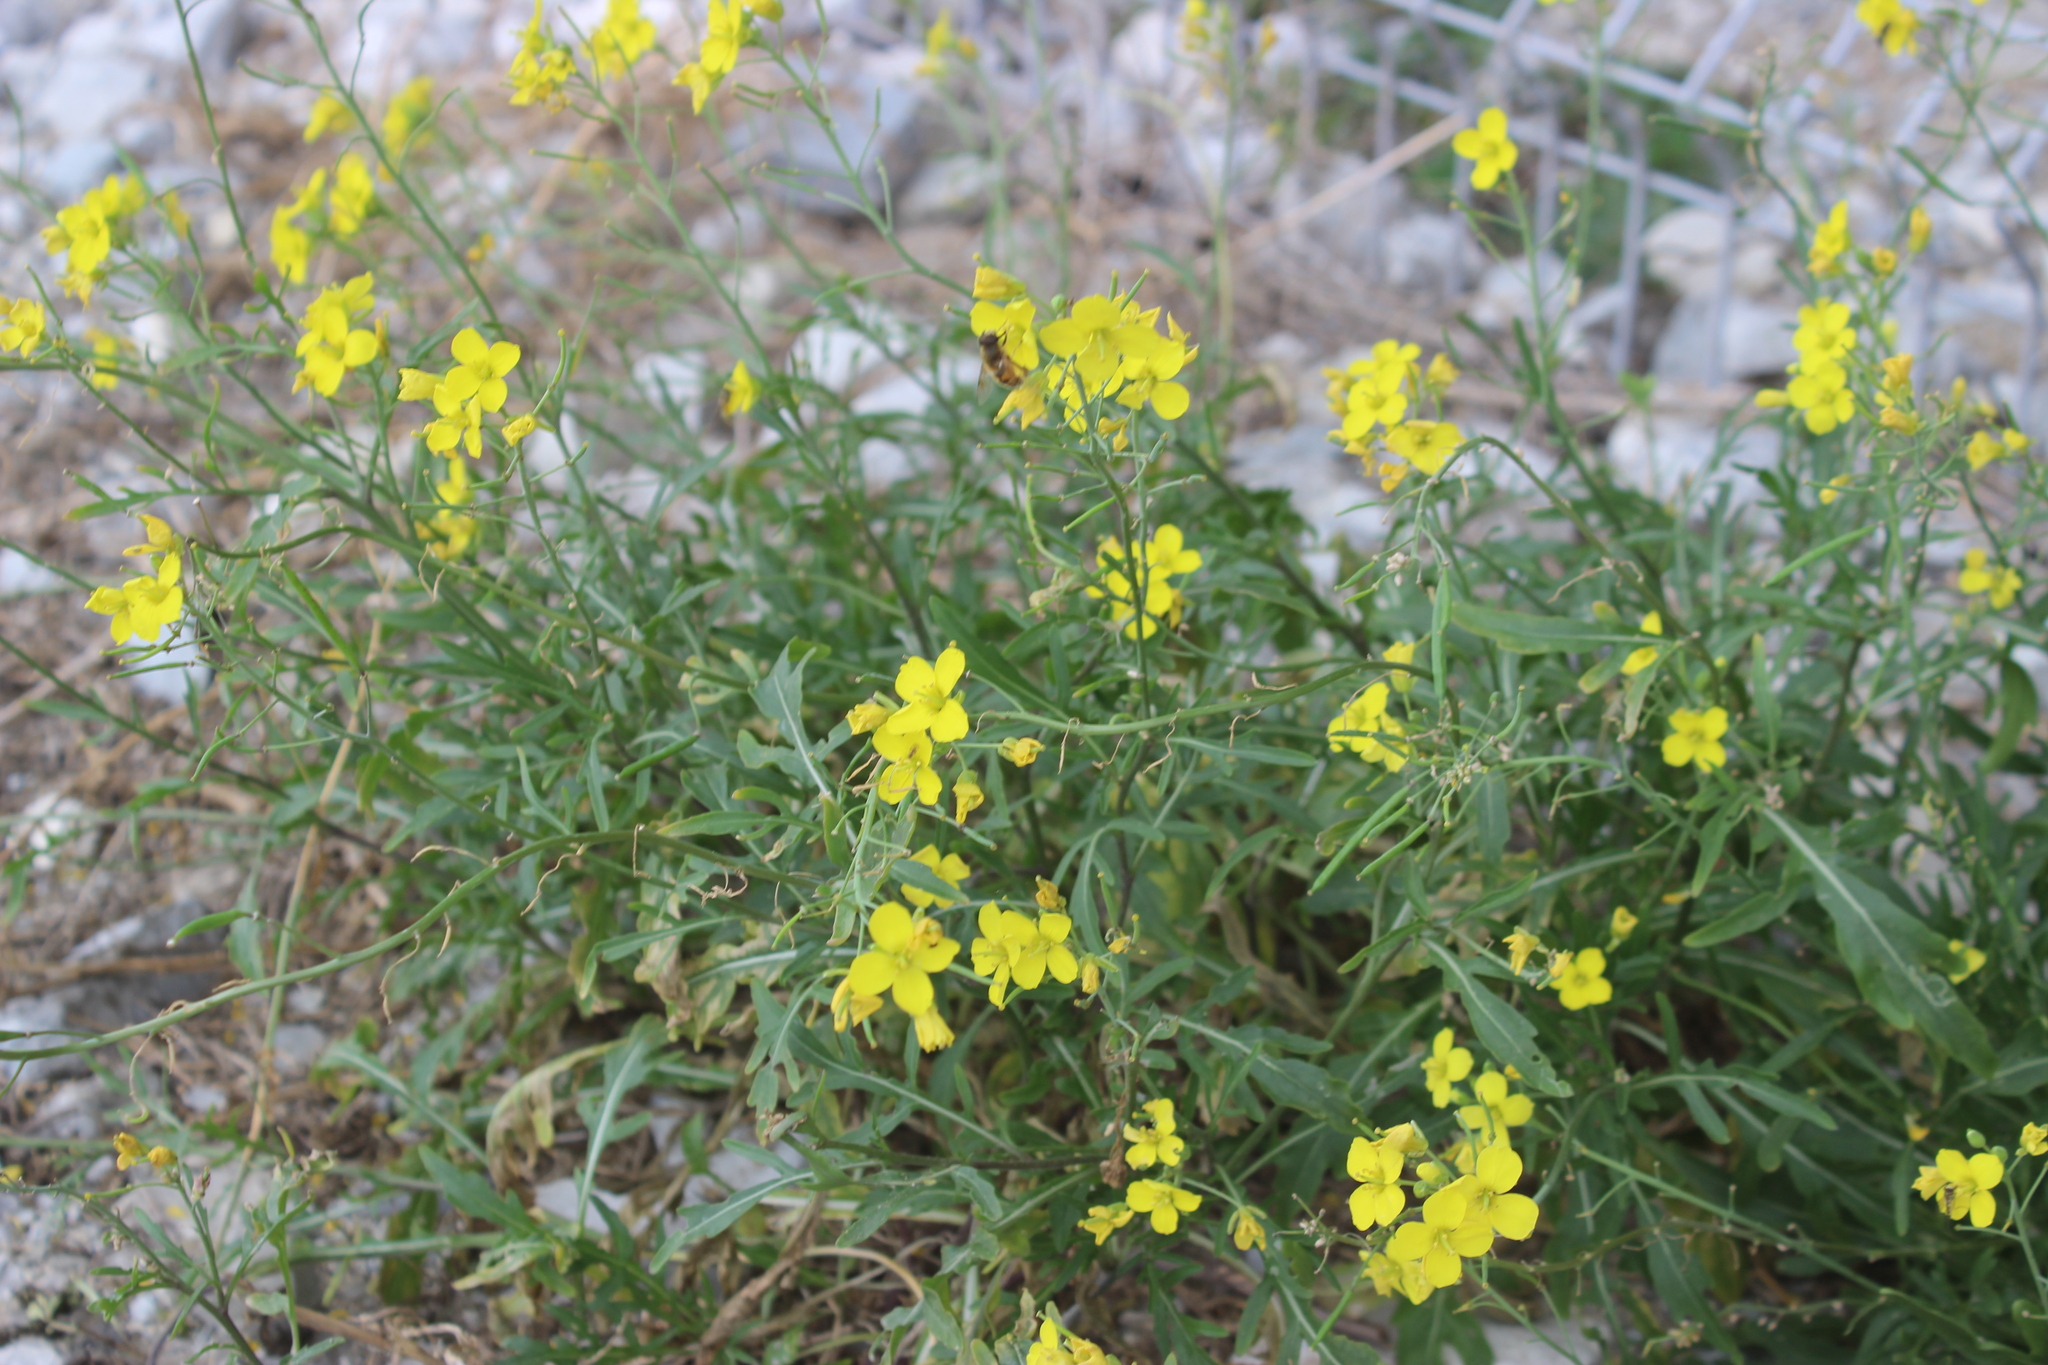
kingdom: Plantae
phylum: Tracheophyta
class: Magnoliopsida
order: Brassicales
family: Brassicaceae
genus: Diplotaxis
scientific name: Diplotaxis tenuifolia
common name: Perennial wall-rocket
